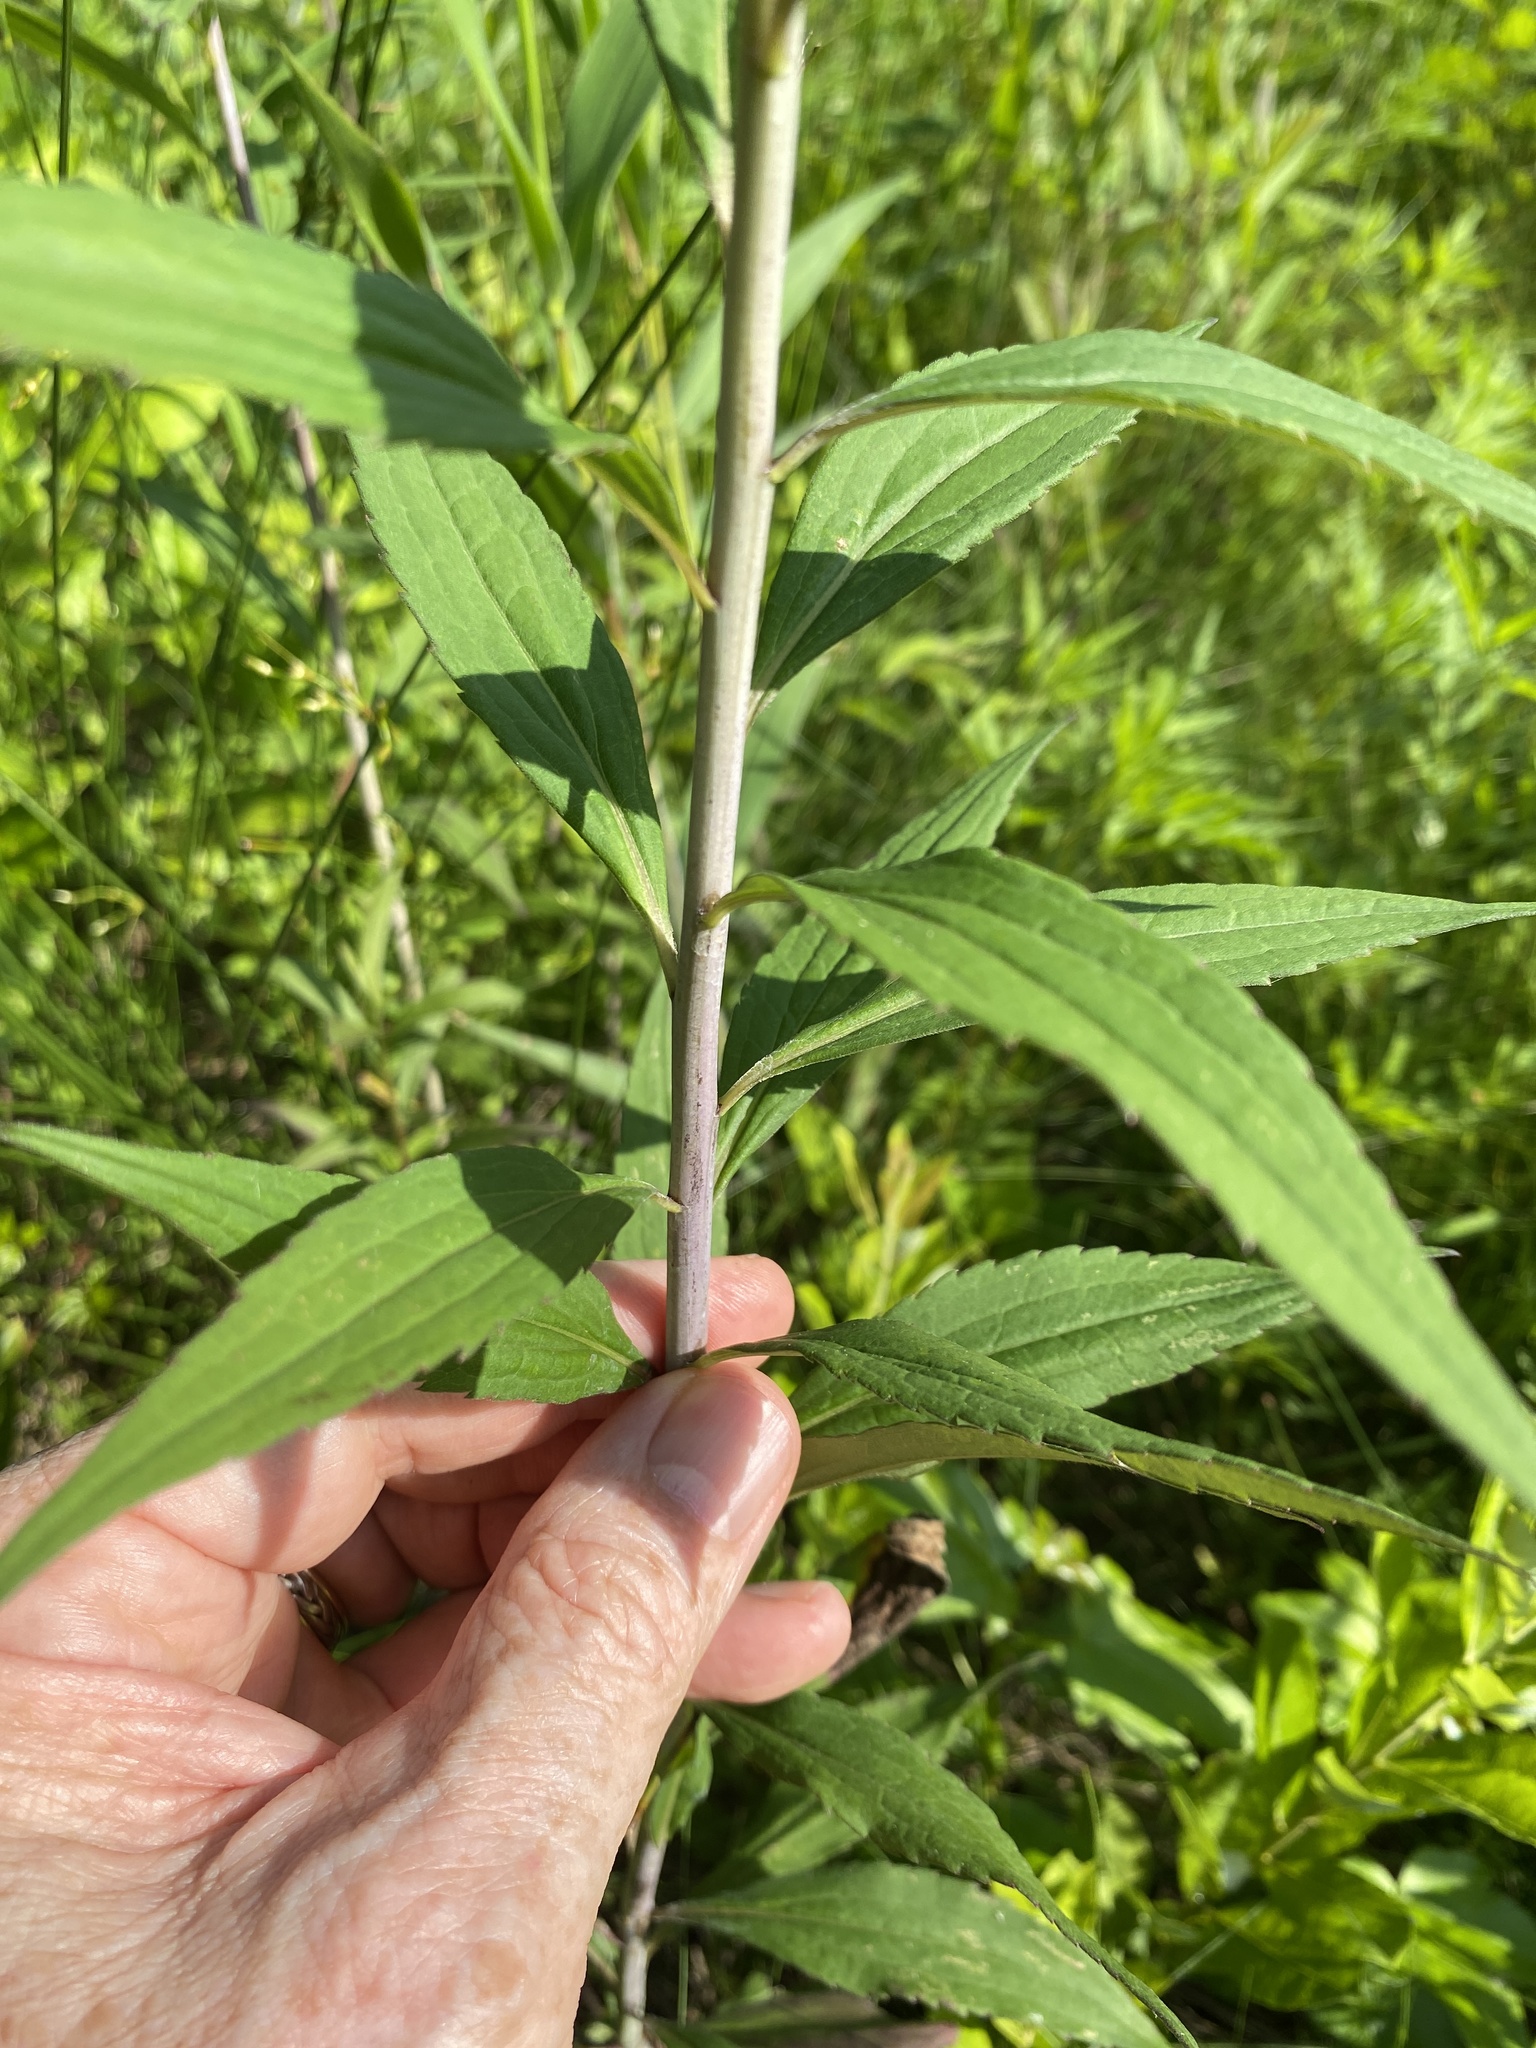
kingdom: Plantae
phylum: Tracheophyta
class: Magnoliopsida
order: Asterales
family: Asteraceae
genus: Solidago
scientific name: Solidago gigantea
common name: Giant goldenrod
